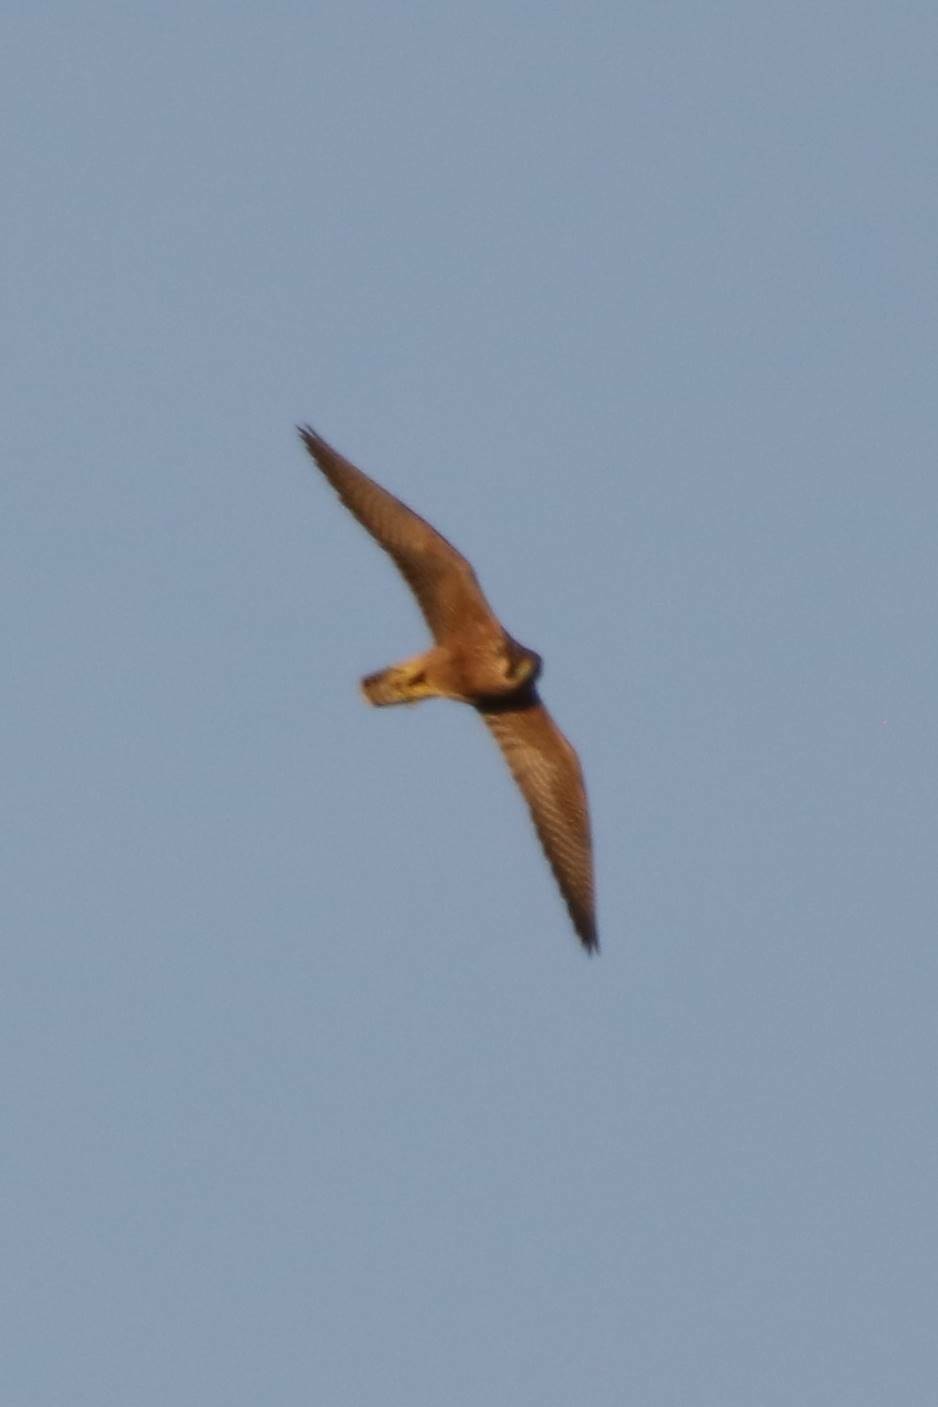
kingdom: Animalia
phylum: Chordata
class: Aves
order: Falconiformes
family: Falconidae
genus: Falco
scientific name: Falco peregrinus
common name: Peregrine falcon
